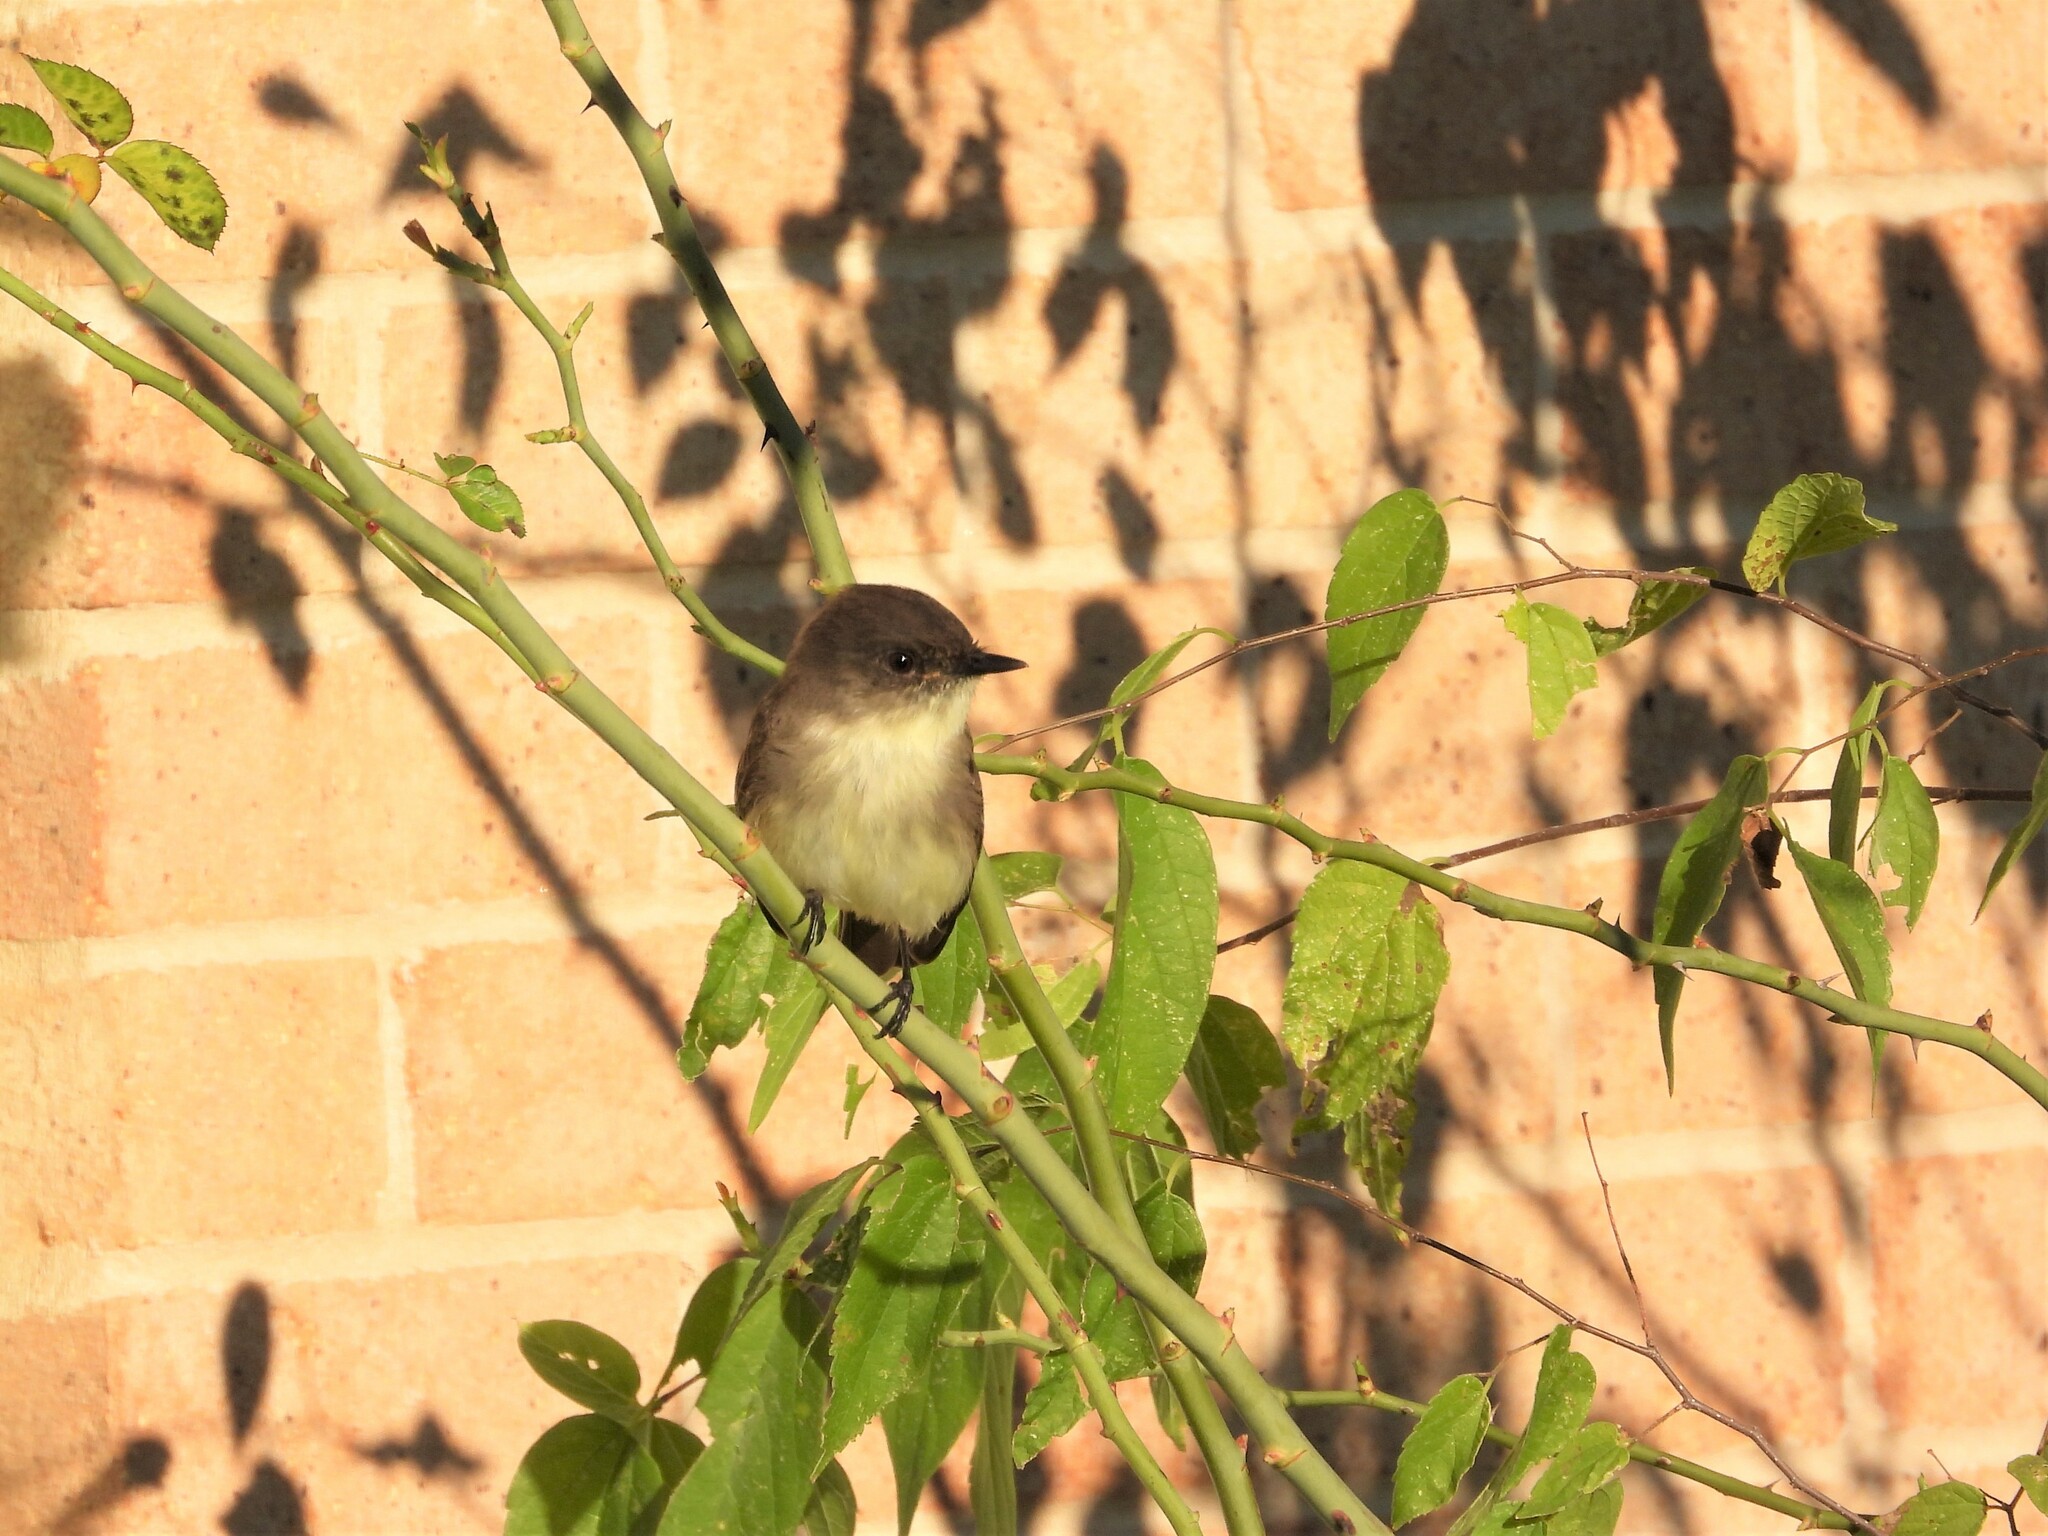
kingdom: Animalia
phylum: Chordata
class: Aves
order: Passeriformes
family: Tyrannidae
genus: Sayornis
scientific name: Sayornis phoebe
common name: Eastern phoebe
